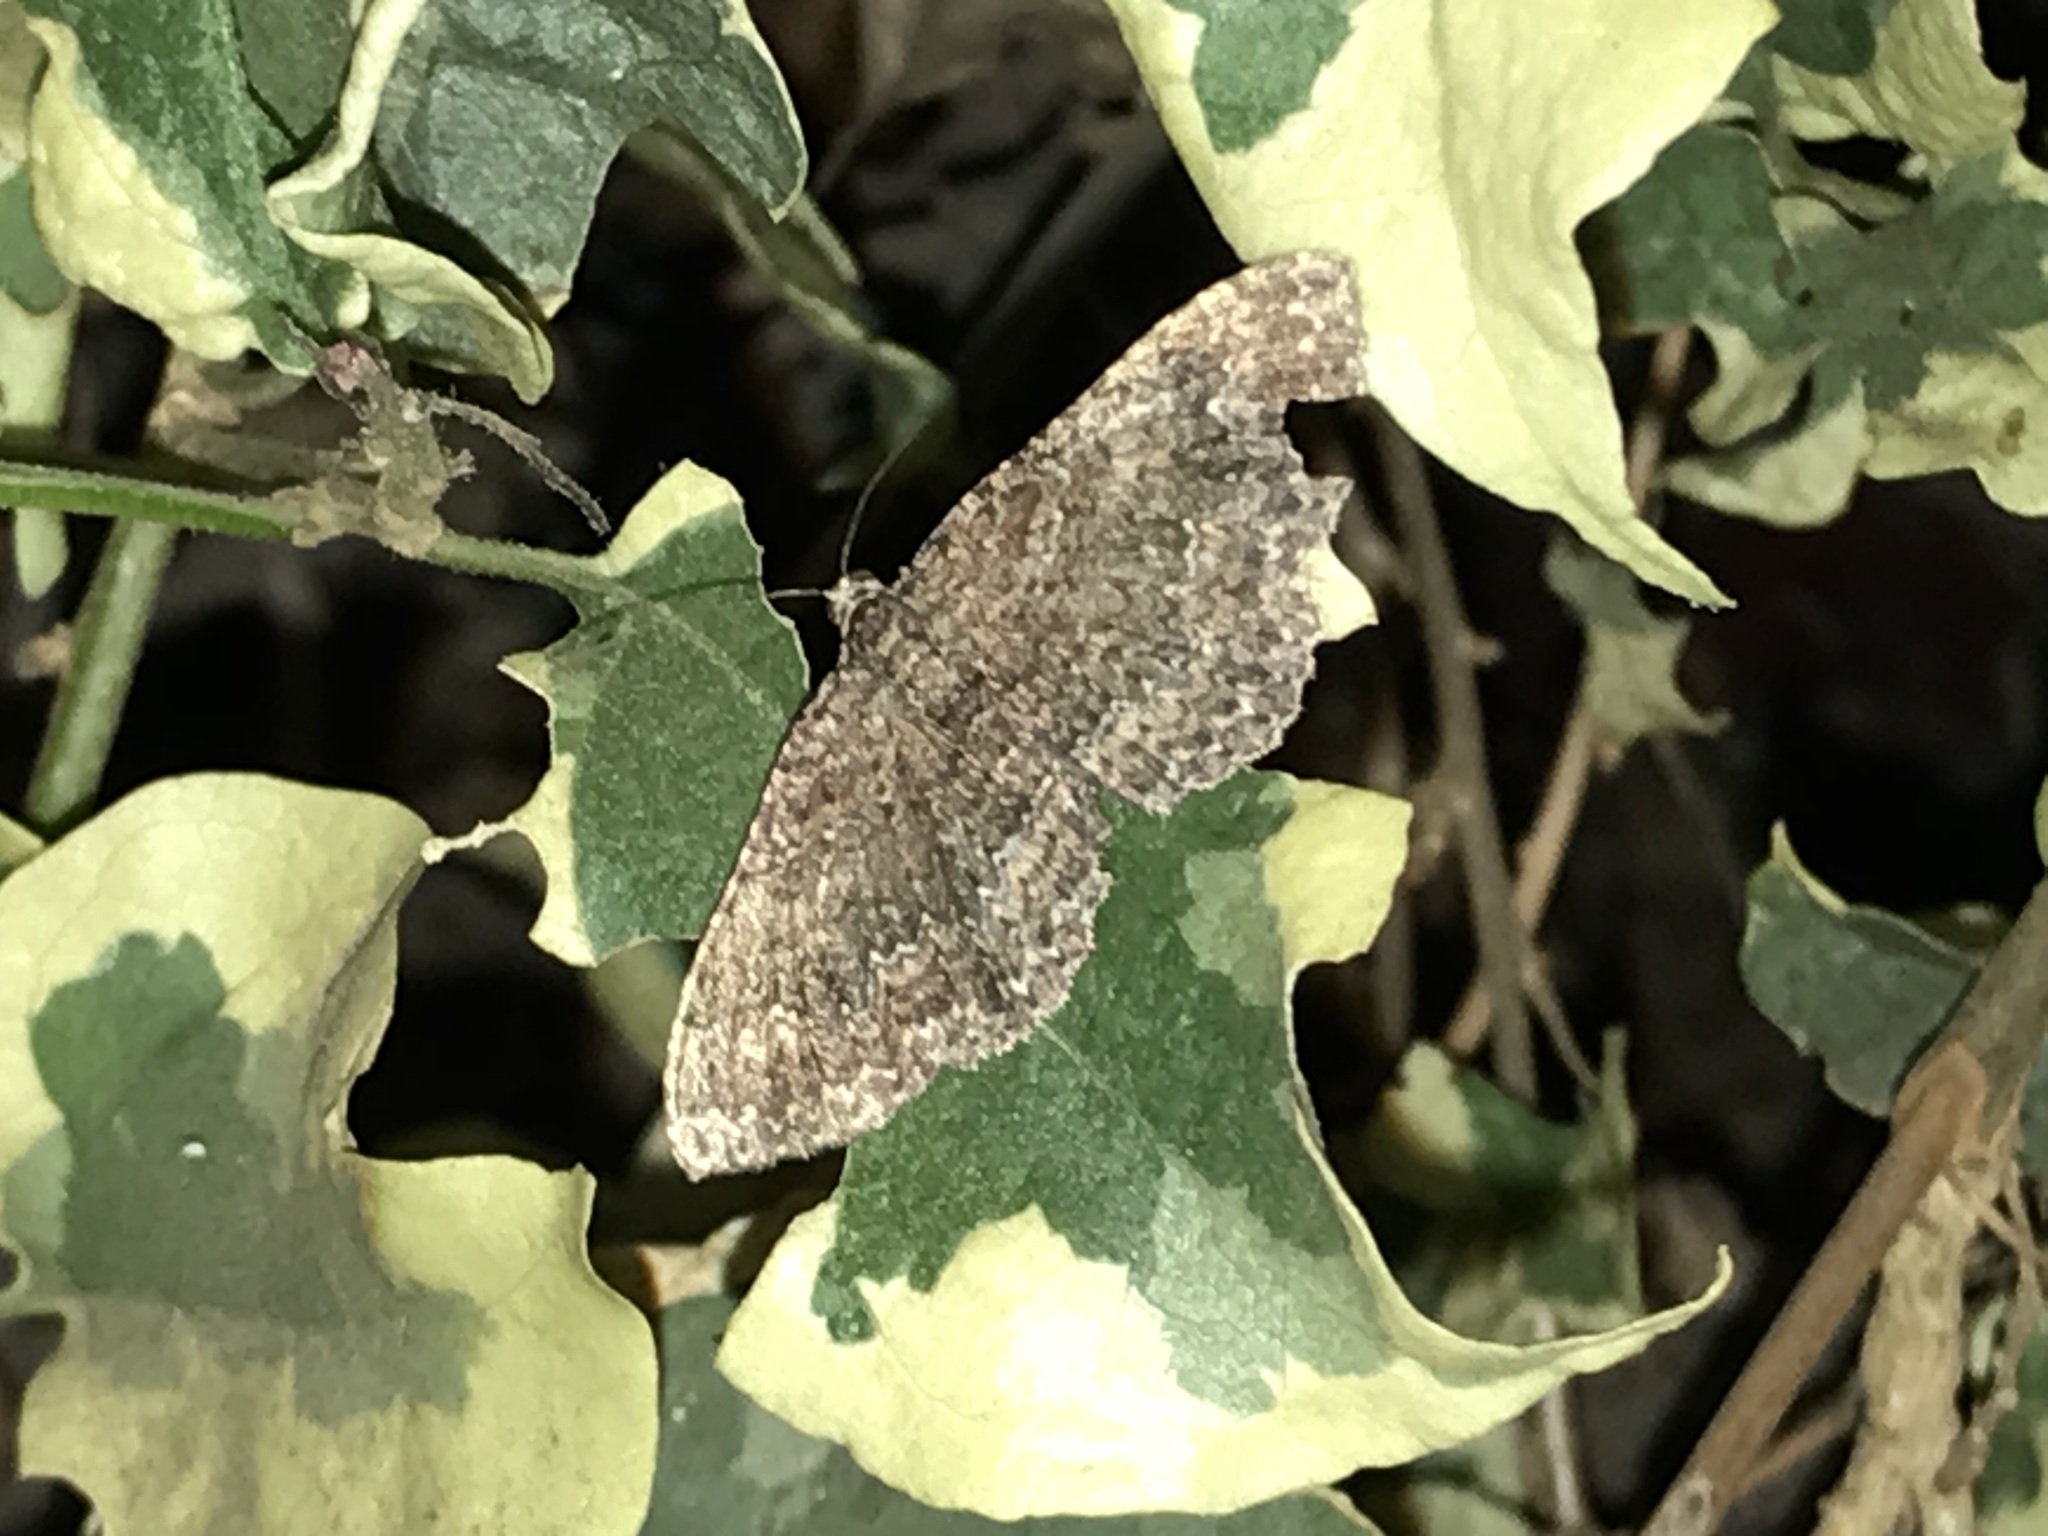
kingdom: Animalia
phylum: Arthropoda
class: Insecta
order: Lepidoptera
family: Geometridae
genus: Disclisioprocta
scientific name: Disclisioprocta stellata
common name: Somber carpet
